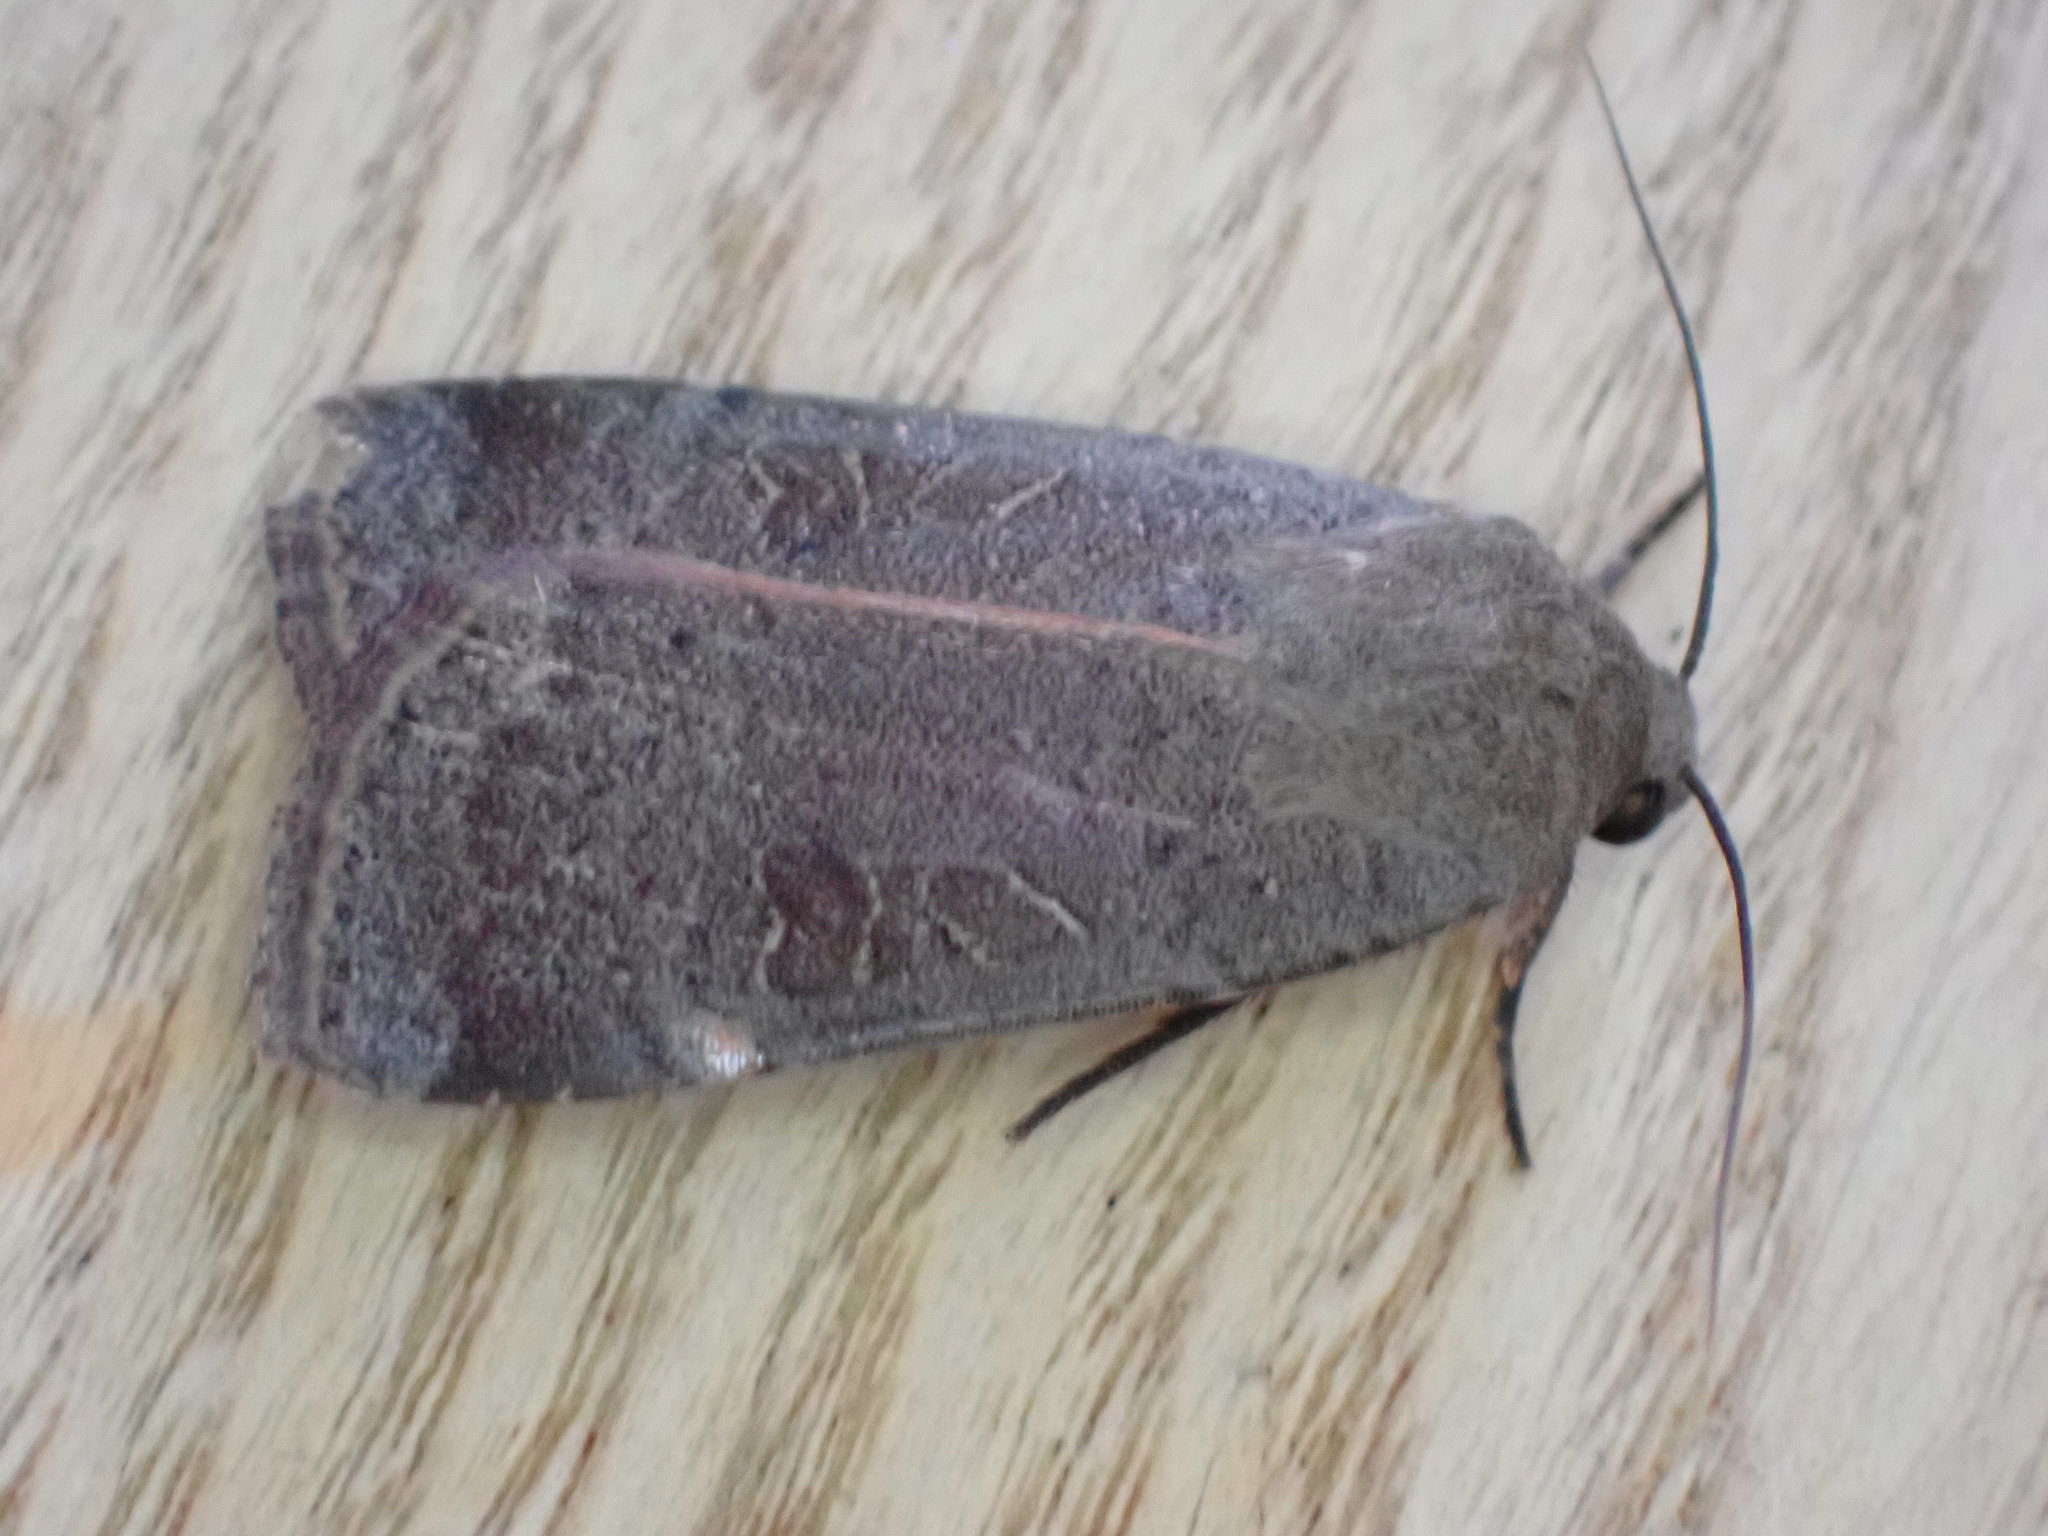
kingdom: Animalia
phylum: Arthropoda
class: Insecta
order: Lepidoptera
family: Noctuidae
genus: Noctua
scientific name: Noctua comes
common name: Lesser yellow underwing
